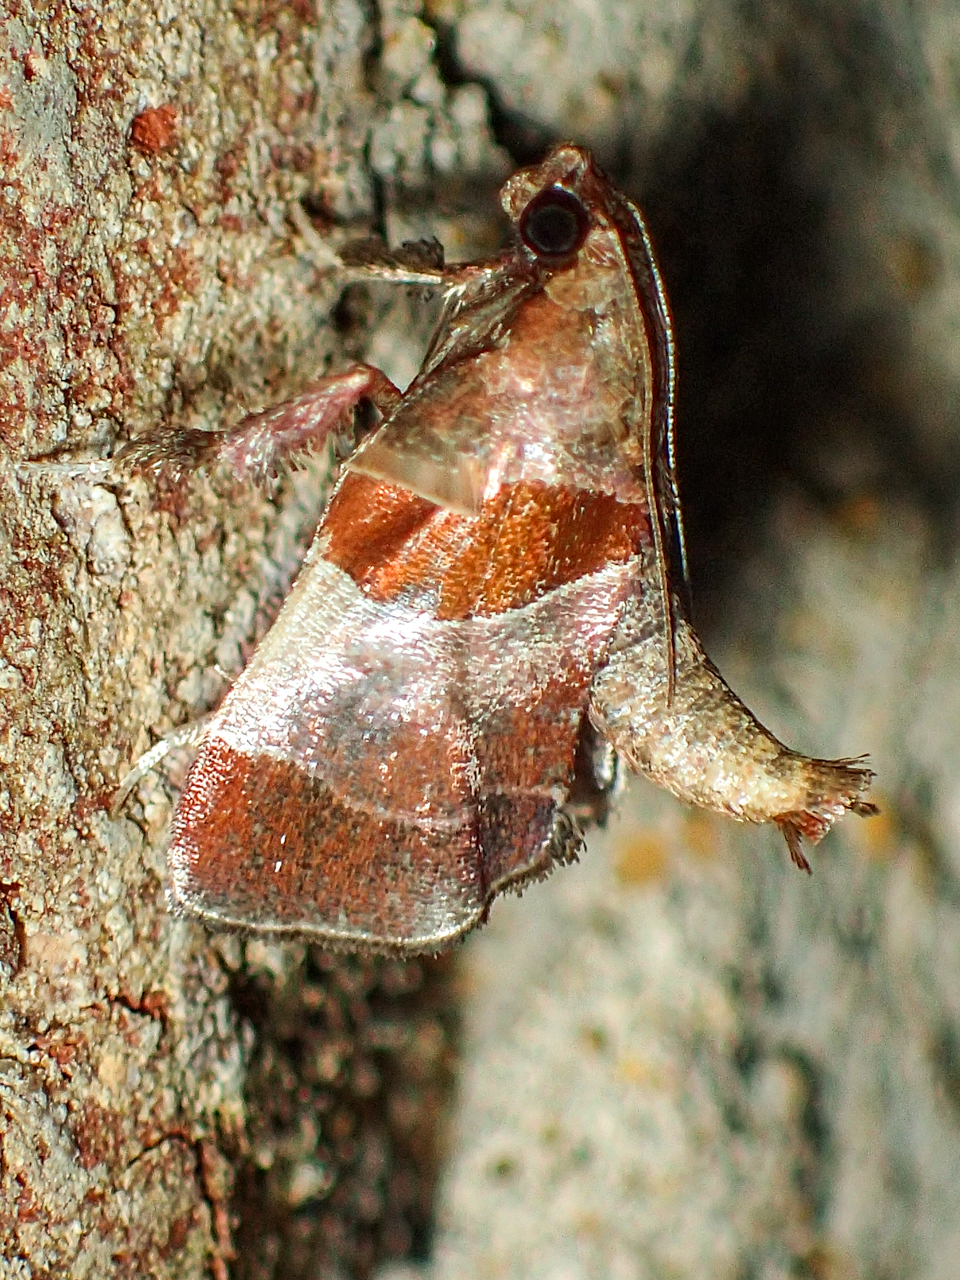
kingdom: Animalia
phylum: Arthropoda
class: Insecta
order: Lepidoptera
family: Pyralidae
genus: Tosale
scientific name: Tosale oviplagalis
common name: Dimorphic tosale moth
